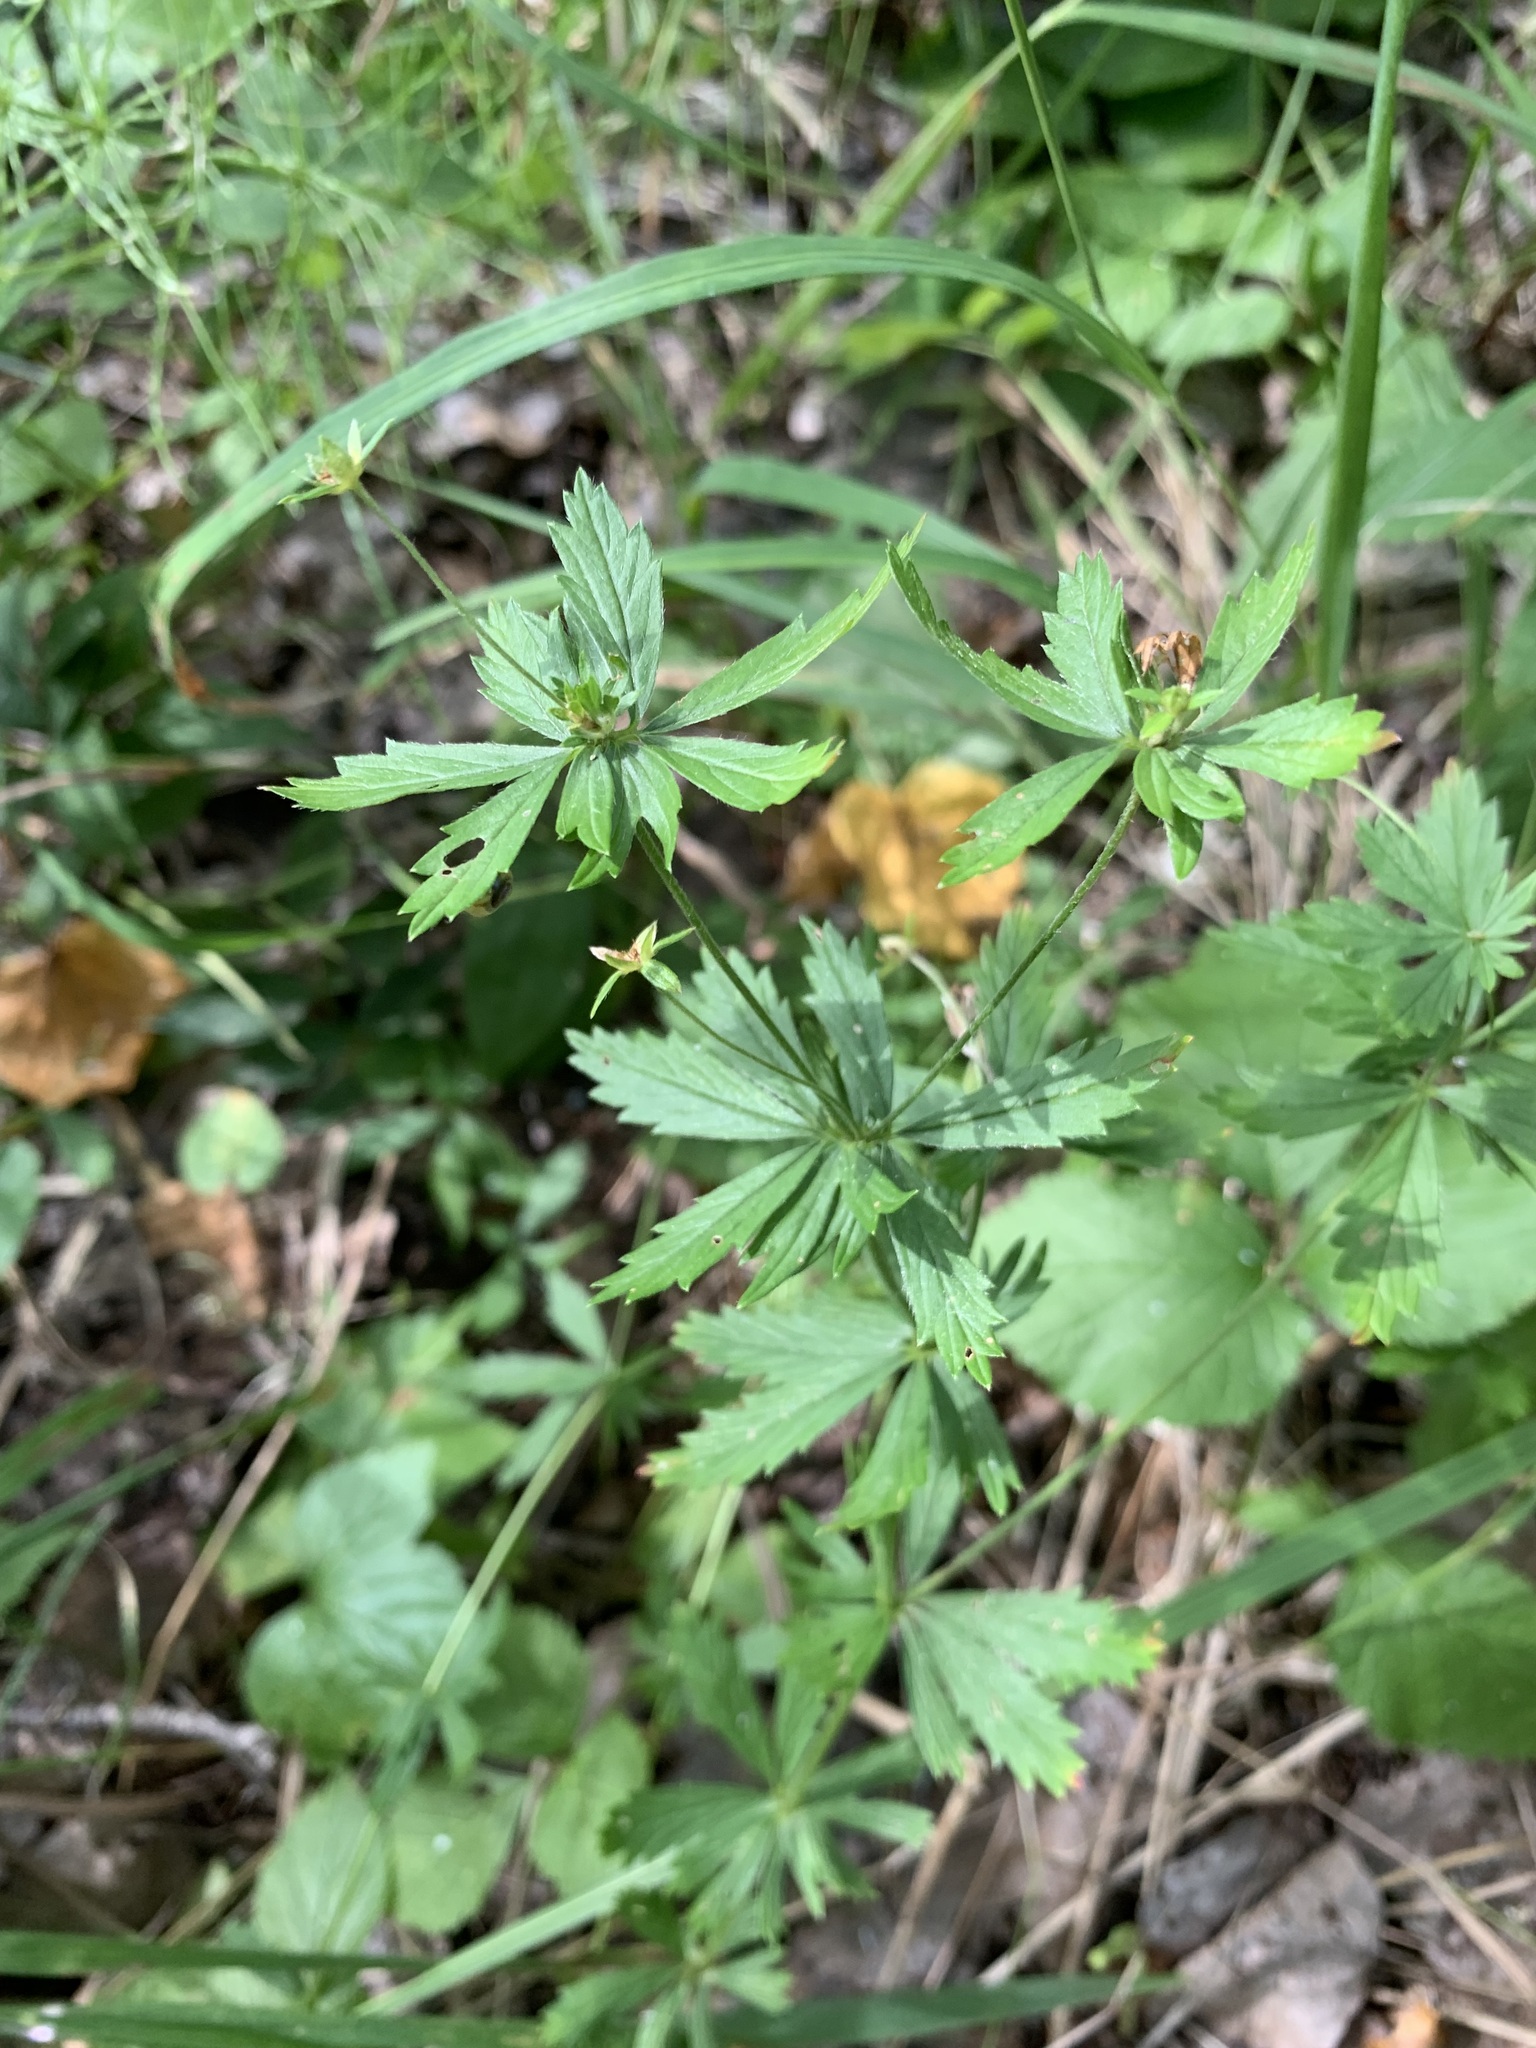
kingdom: Plantae
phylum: Tracheophyta
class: Magnoliopsida
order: Rosales
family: Rosaceae
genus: Potentilla
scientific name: Potentilla erecta
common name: Tormentil
